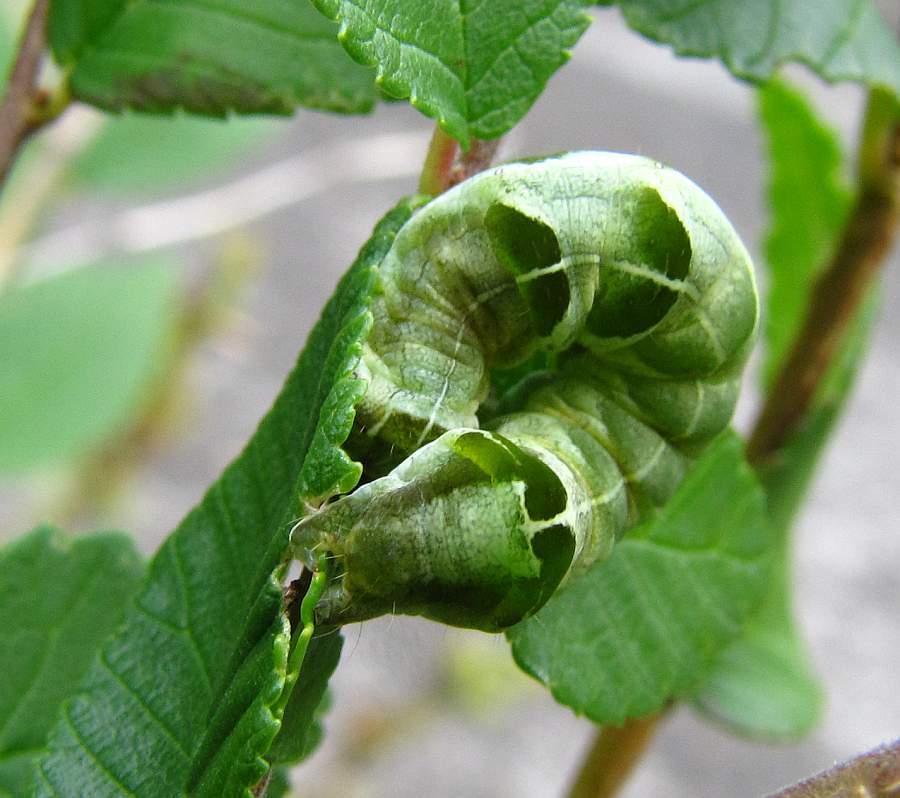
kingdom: Animalia
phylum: Arthropoda
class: Insecta
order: Lepidoptera
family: Noctuidae
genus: Melanchra
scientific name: Melanchra adjuncta
